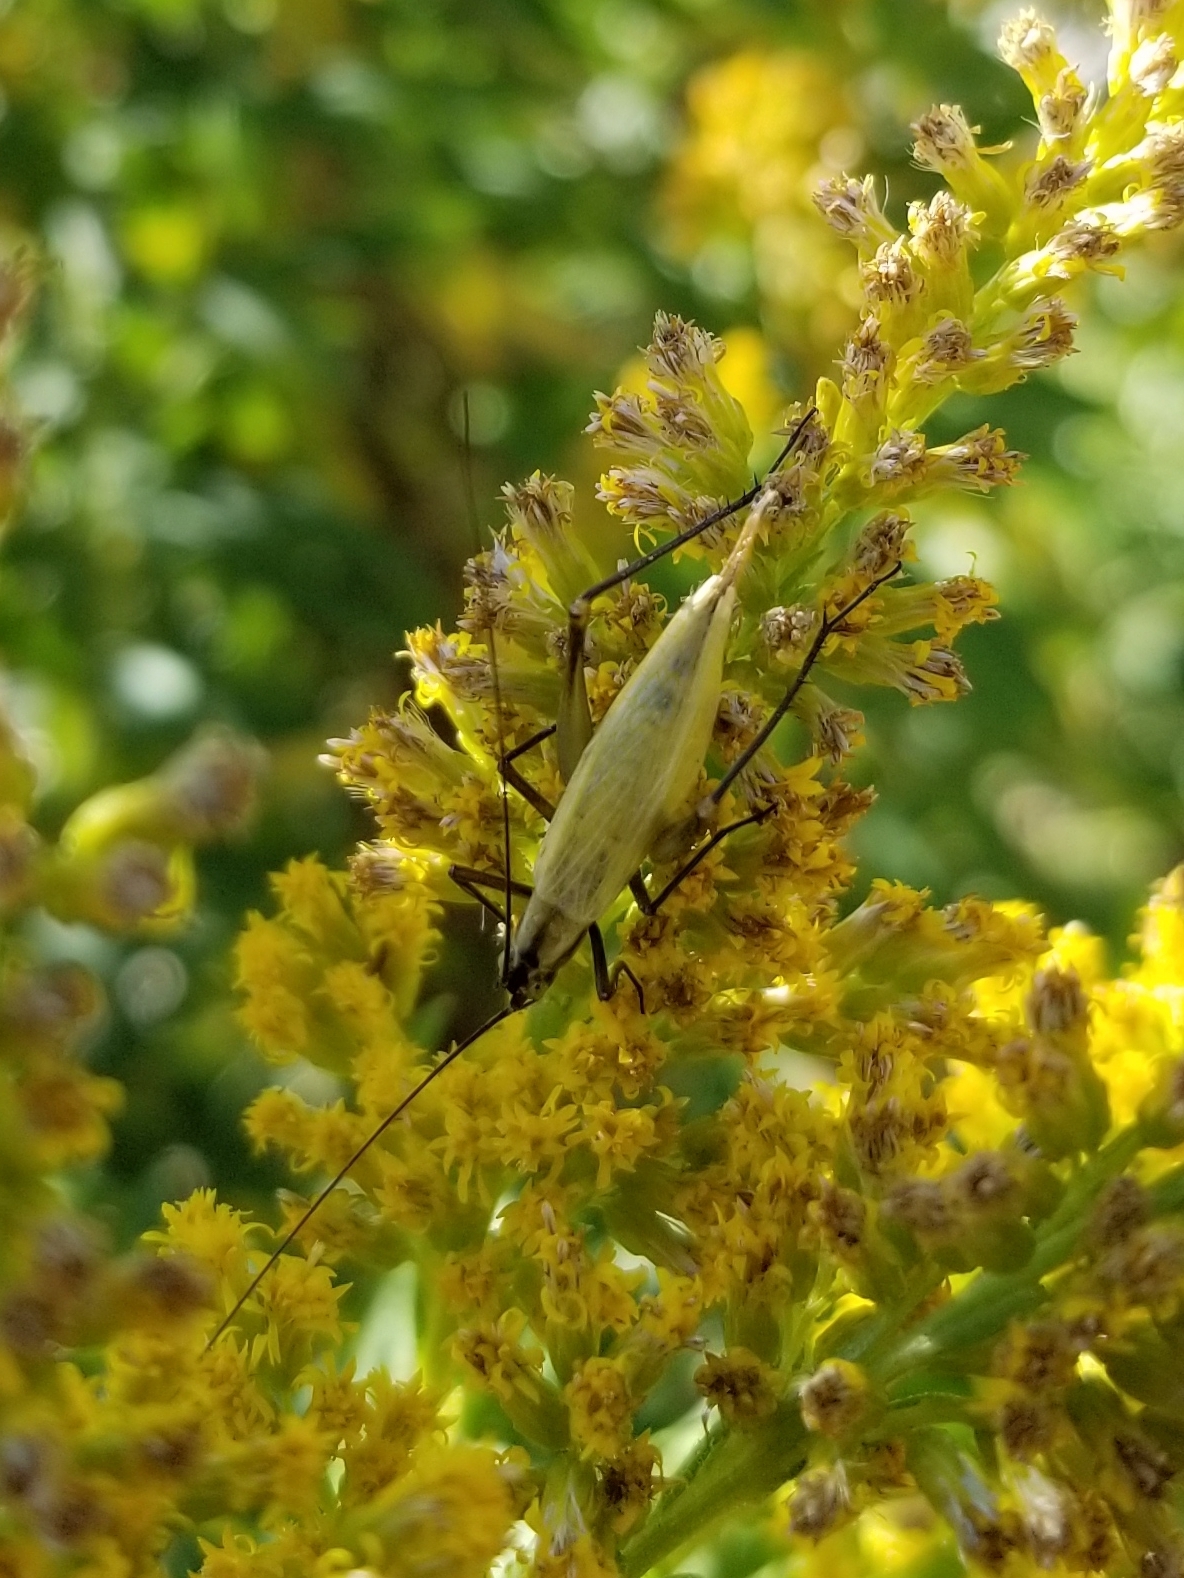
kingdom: Animalia
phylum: Arthropoda
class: Insecta
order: Orthoptera
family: Gryllidae
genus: Oecanthus
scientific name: Oecanthus nigricornis
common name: Black-horned tree cricket
